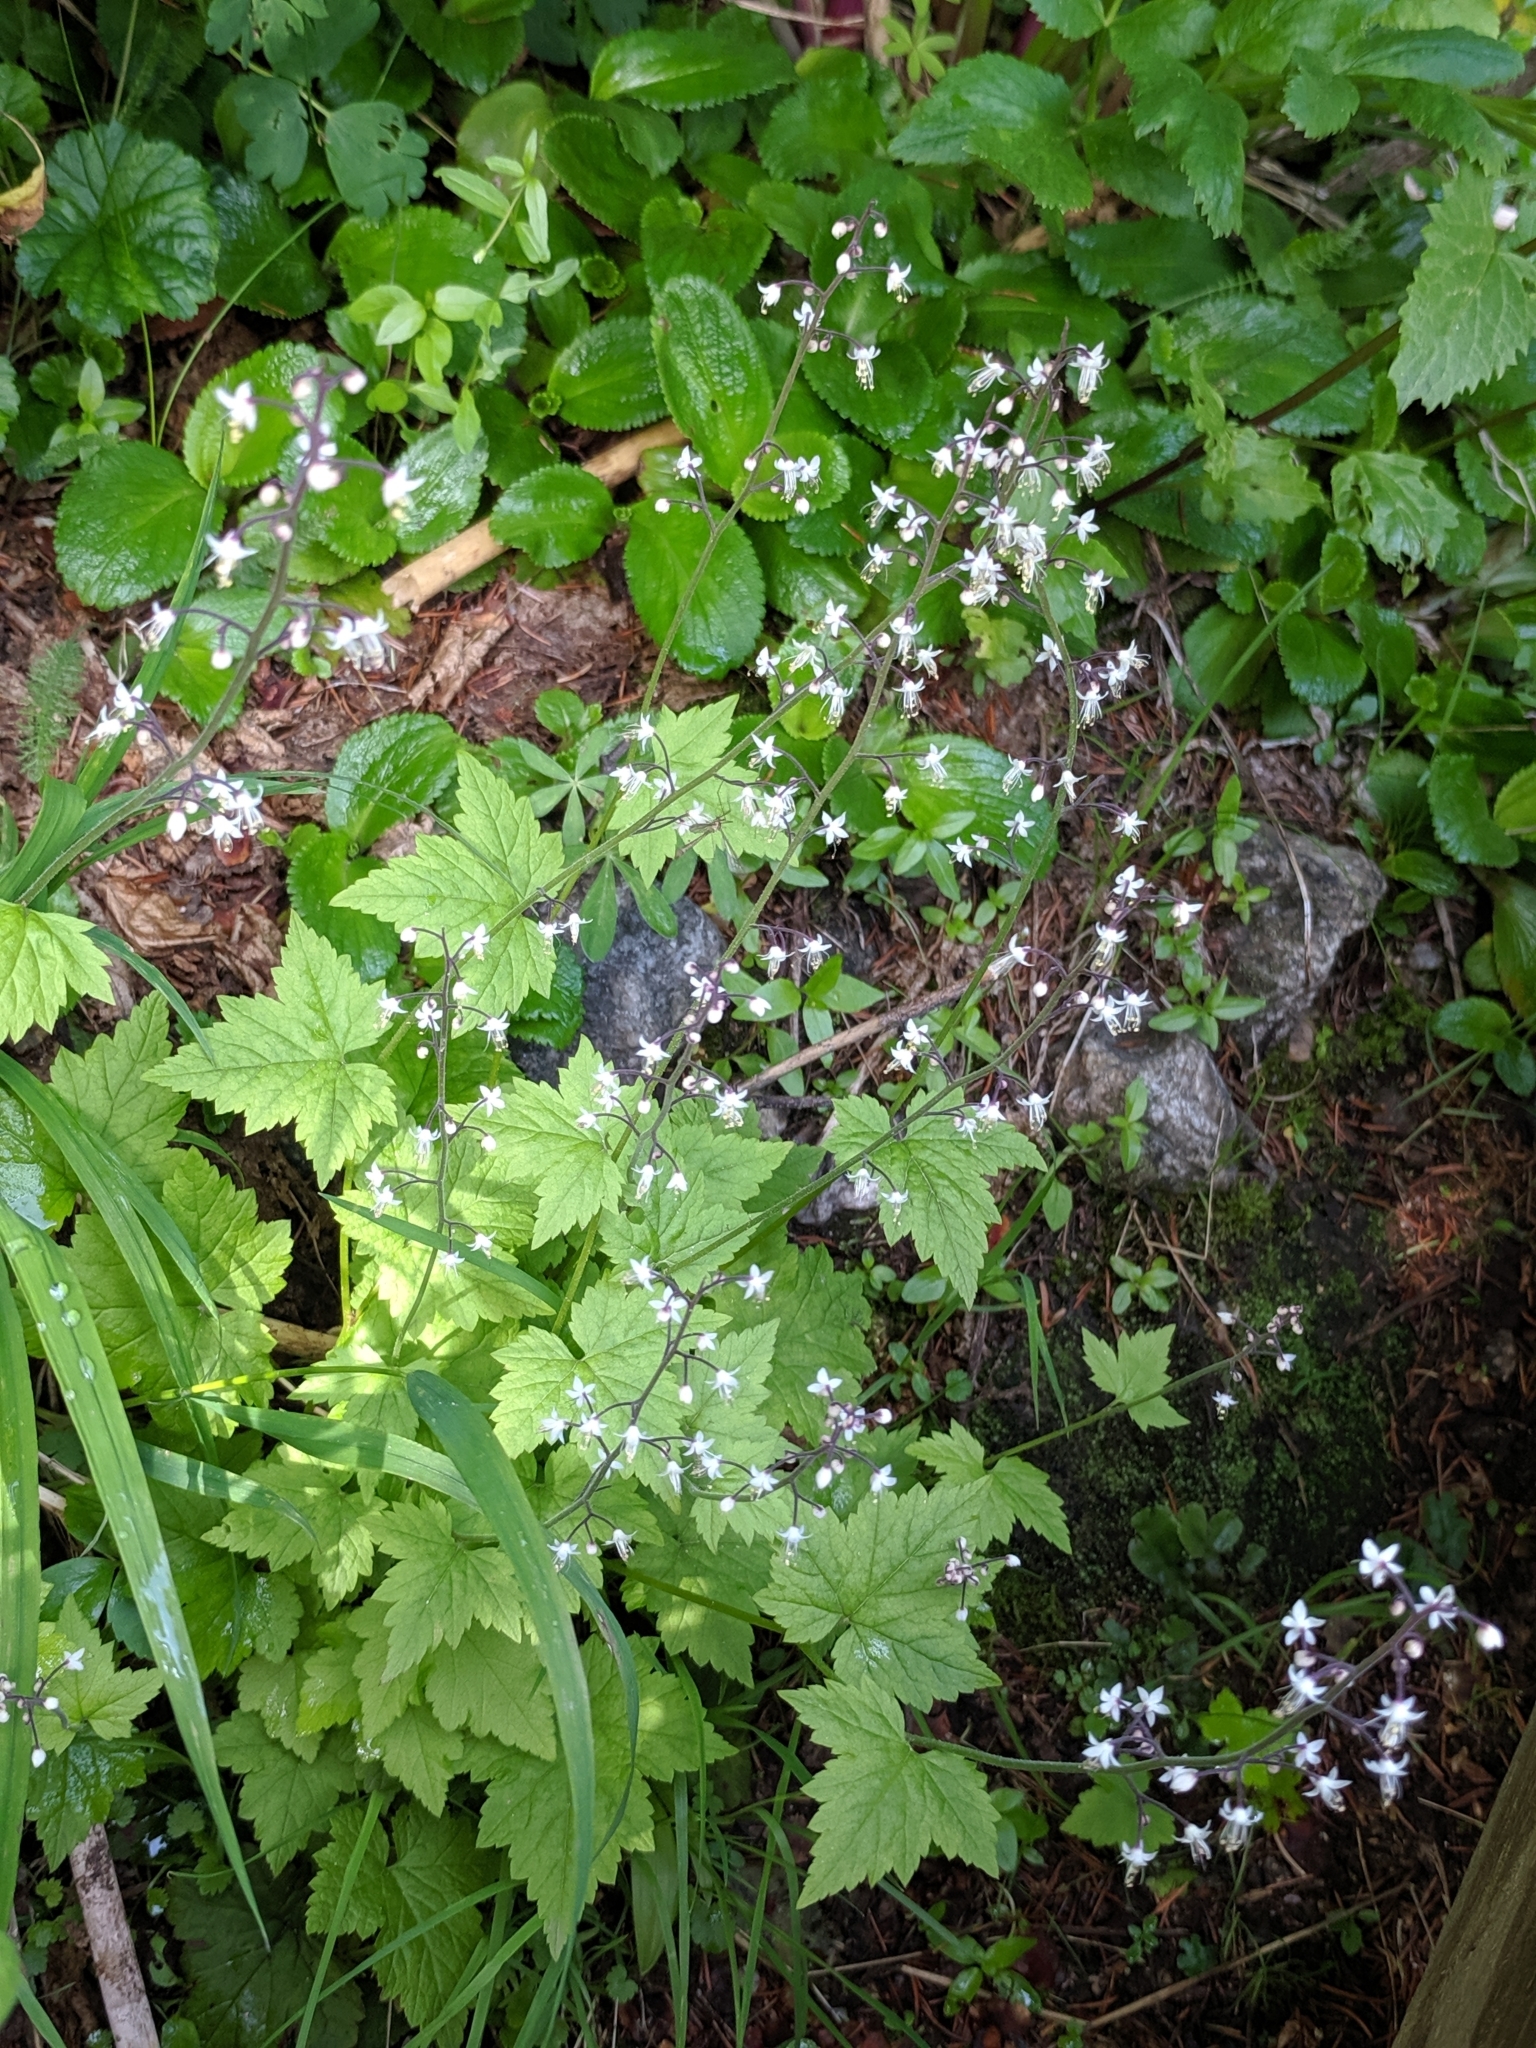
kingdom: Plantae
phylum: Tracheophyta
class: Magnoliopsida
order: Saxifragales
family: Saxifragaceae
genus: Tiarella
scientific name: Tiarella trifoliata
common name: Sugar-scoop
